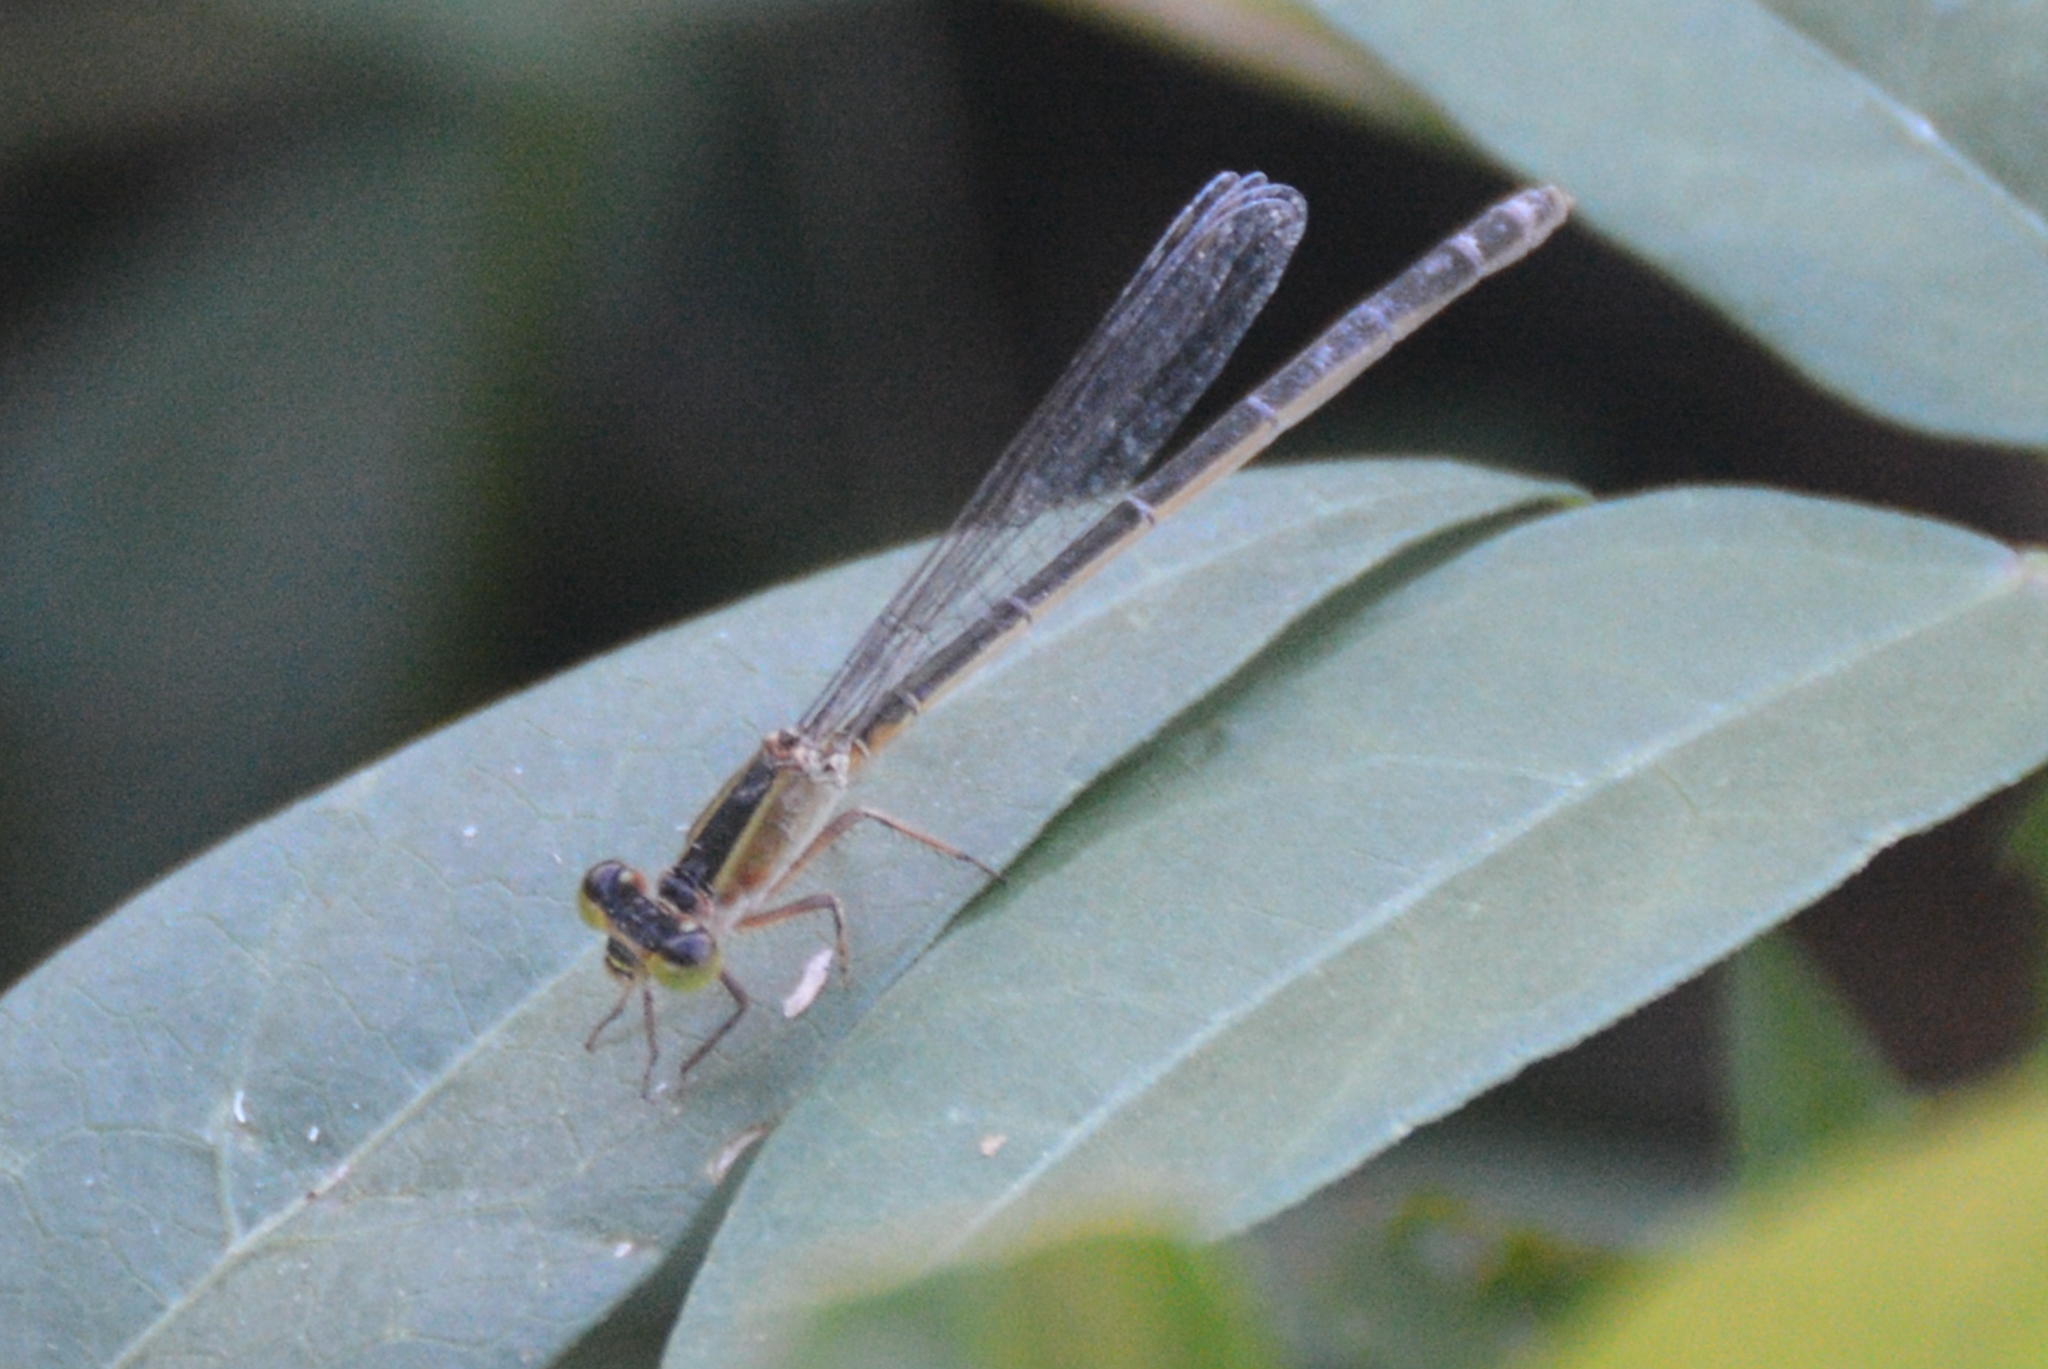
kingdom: Animalia
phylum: Arthropoda
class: Insecta
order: Odonata
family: Coenagrionidae
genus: Ischnura
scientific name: Ischnura ramburii
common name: Rambur's forktail
